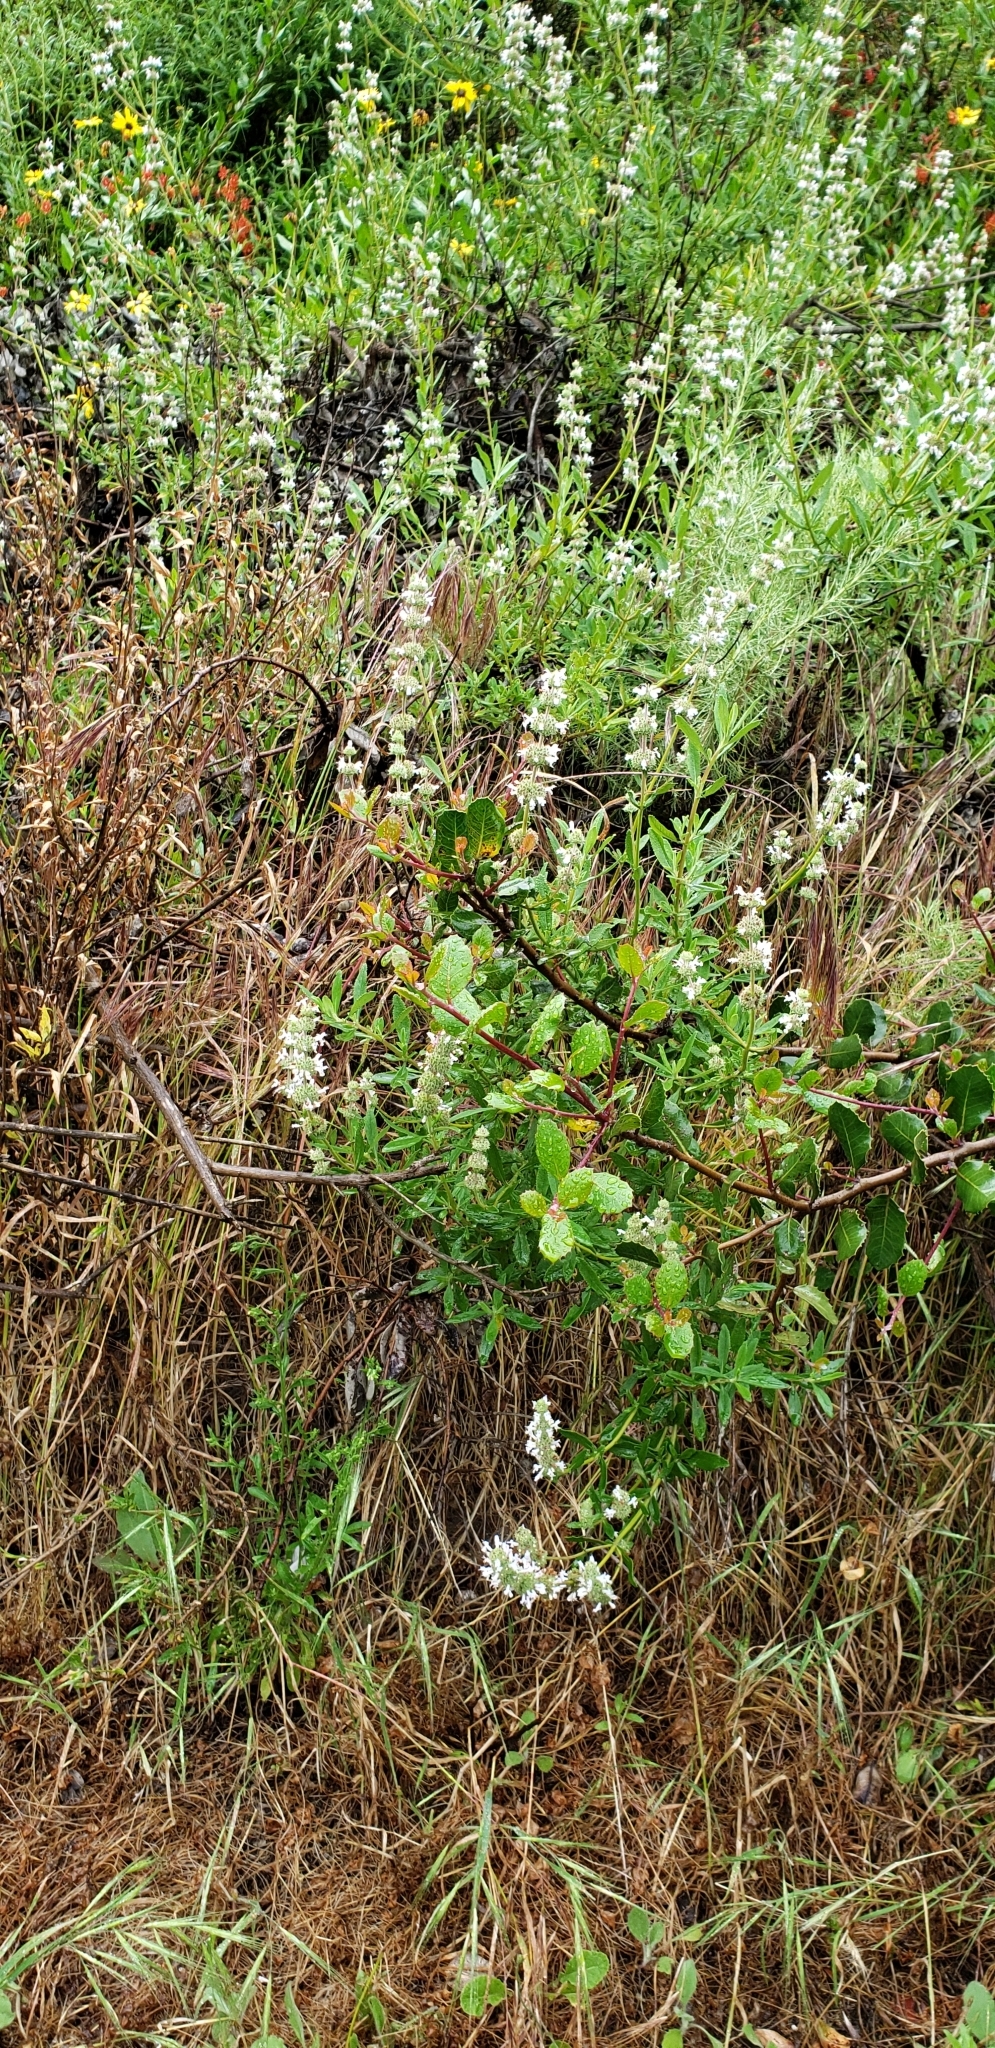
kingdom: Plantae
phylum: Tracheophyta
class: Magnoliopsida
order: Lamiales
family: Lamiaceae
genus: Salvia
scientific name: Salvia mellifera
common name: Black sage
